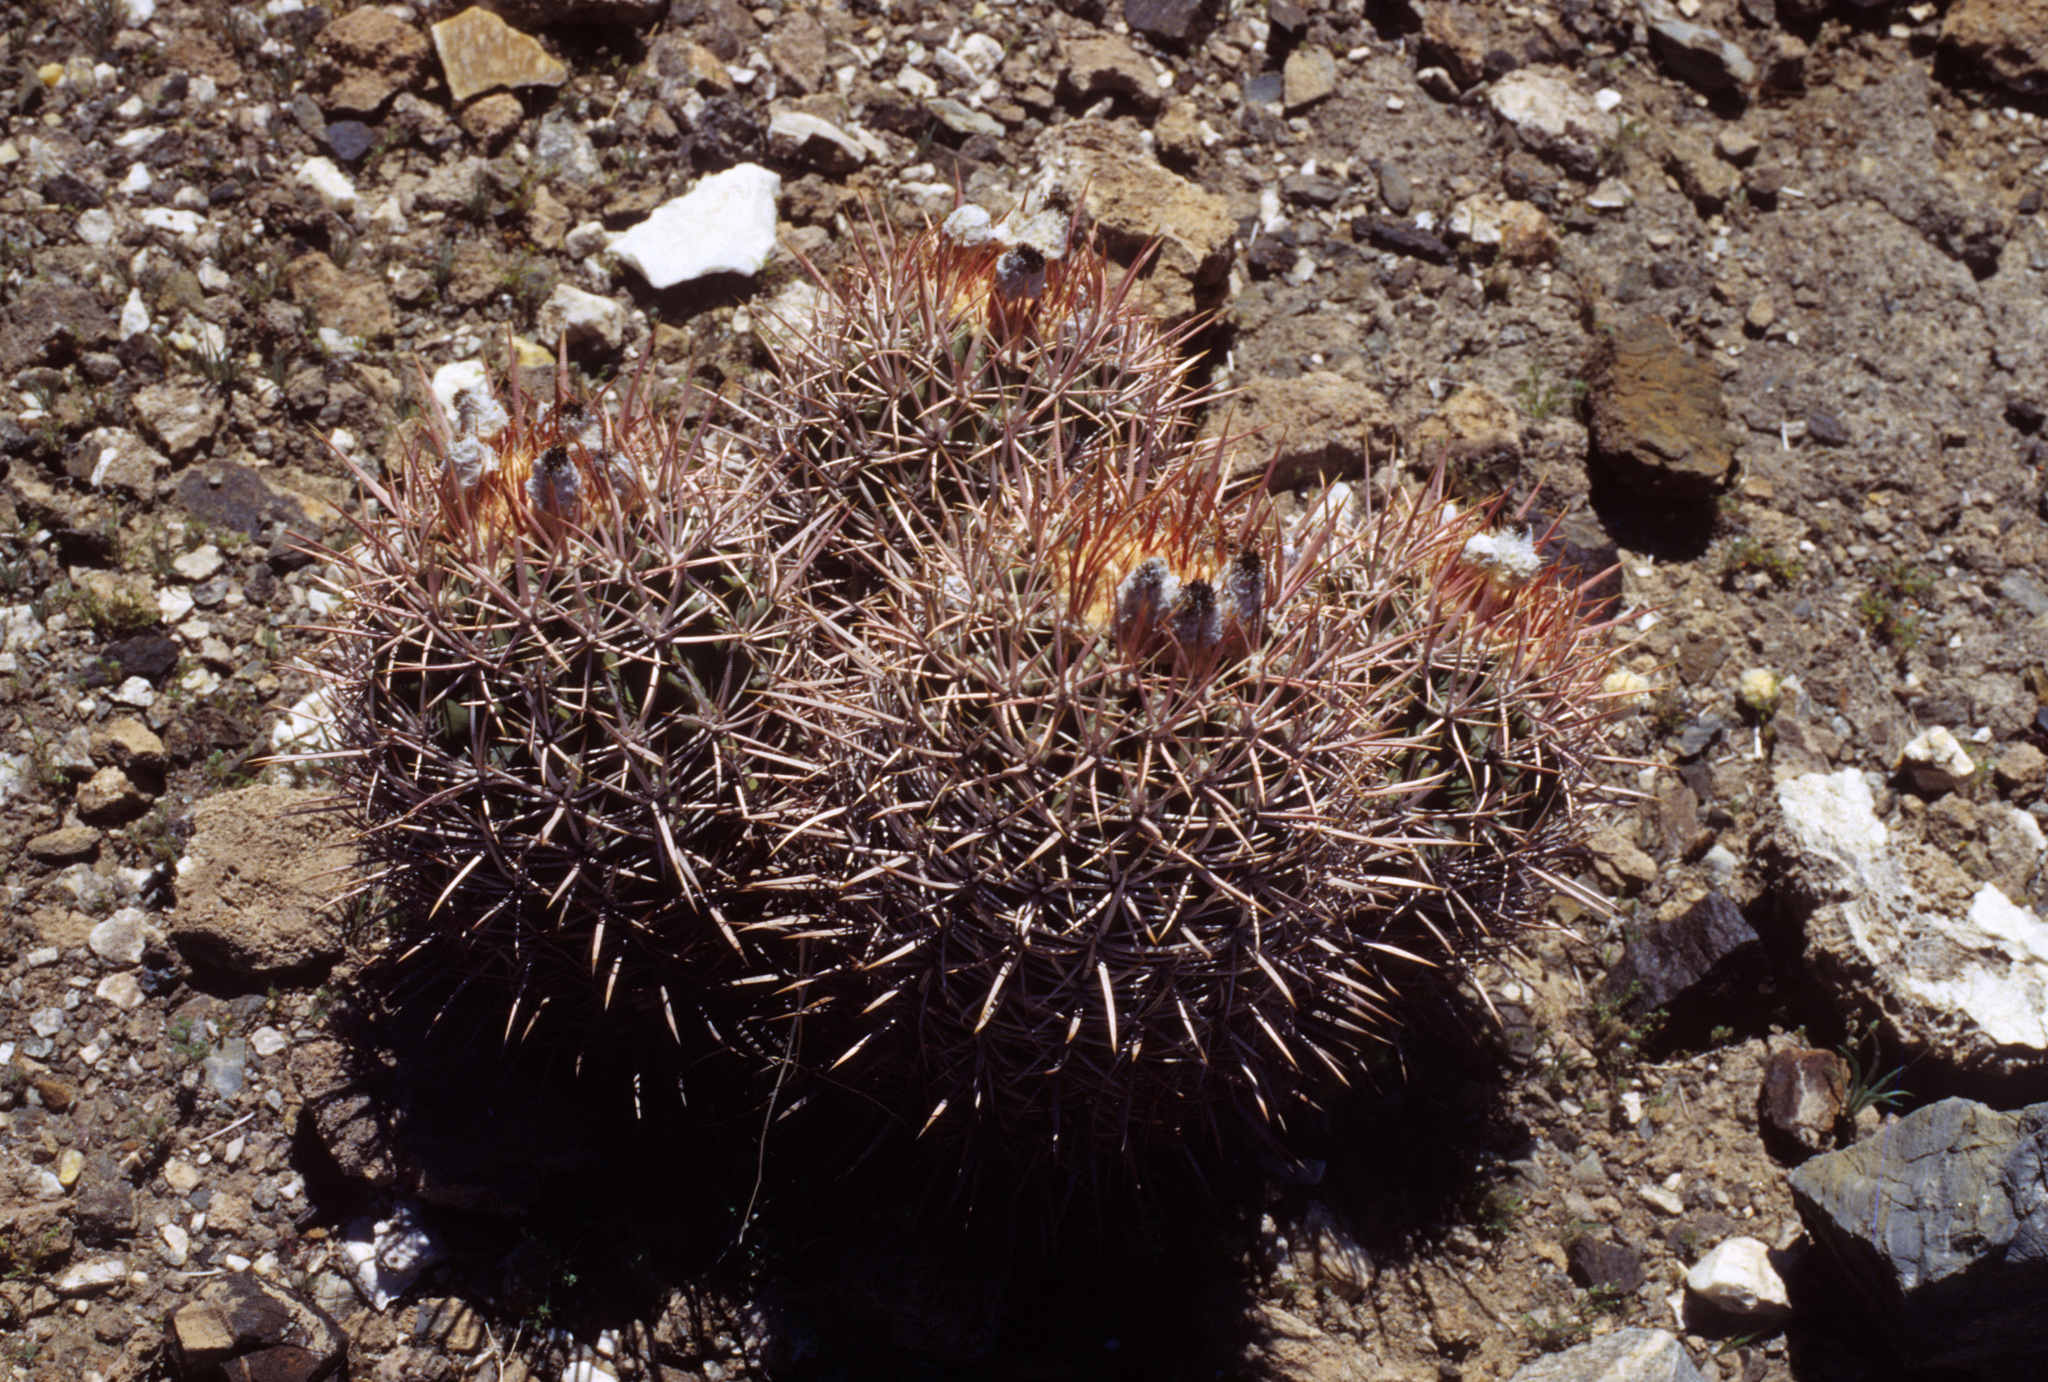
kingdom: Plantae
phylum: Tracheophyta
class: Magnoliopsida
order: Caryophyllales
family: Cactaceae
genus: Echinocactus
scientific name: Echinocactus polycephalus
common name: Cottontop cactus
